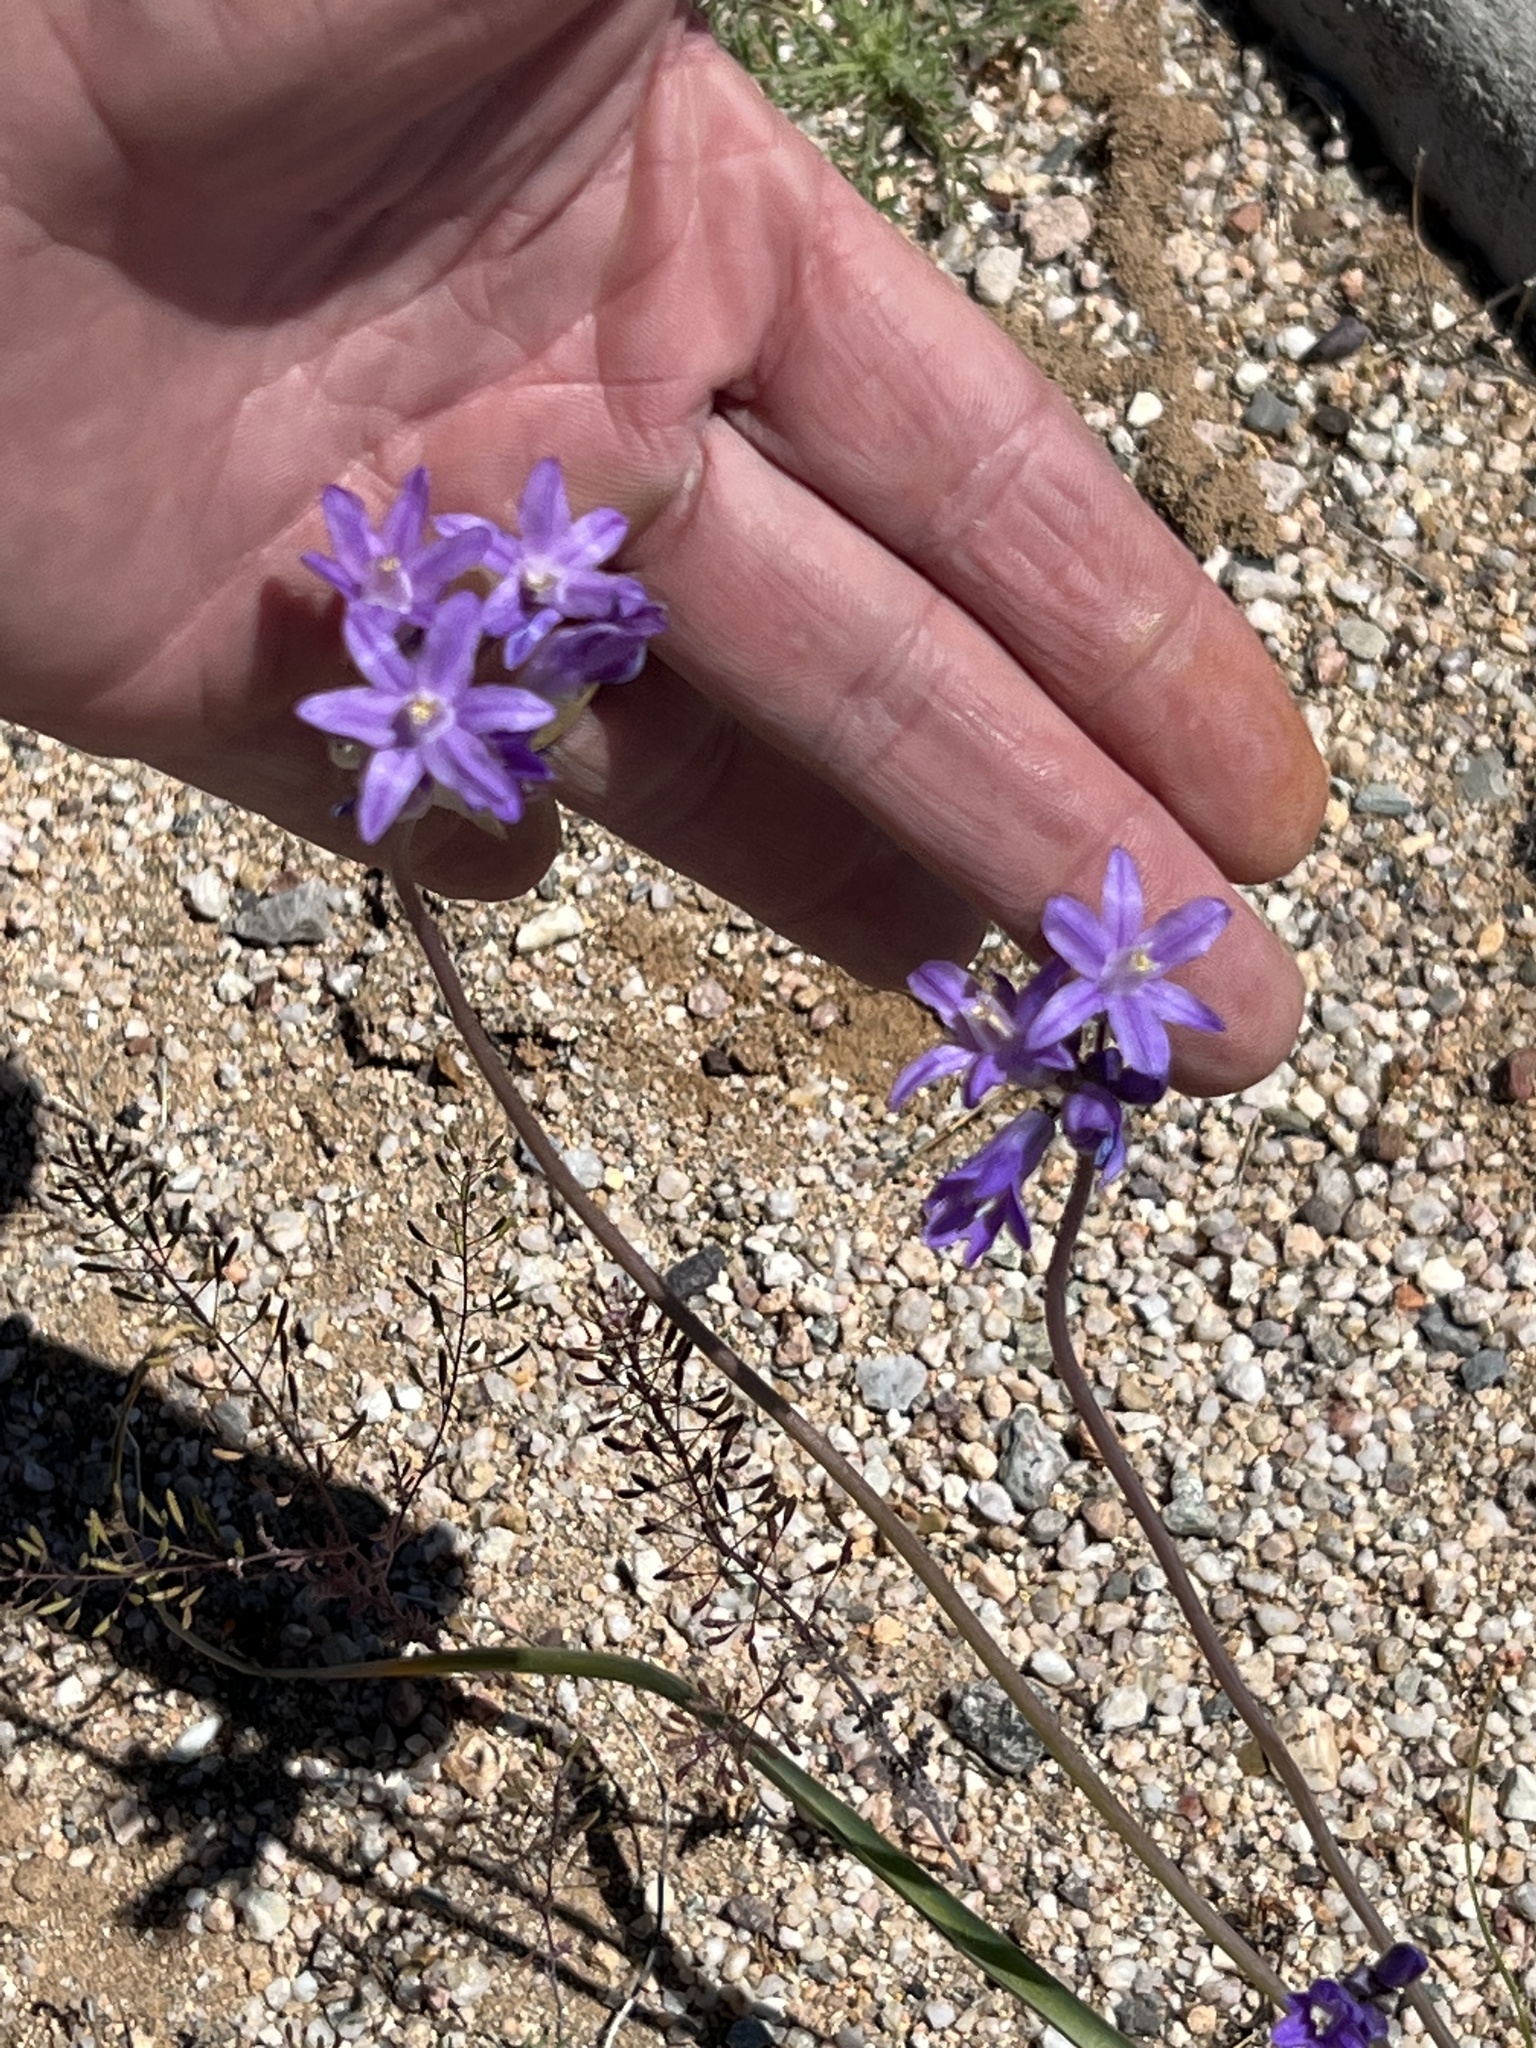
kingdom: Plantae
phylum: Tracheophyta
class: Liliopsida
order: Asparagales
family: Asparagaceae
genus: Dipterostemon
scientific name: Dipterostemon capitatus
